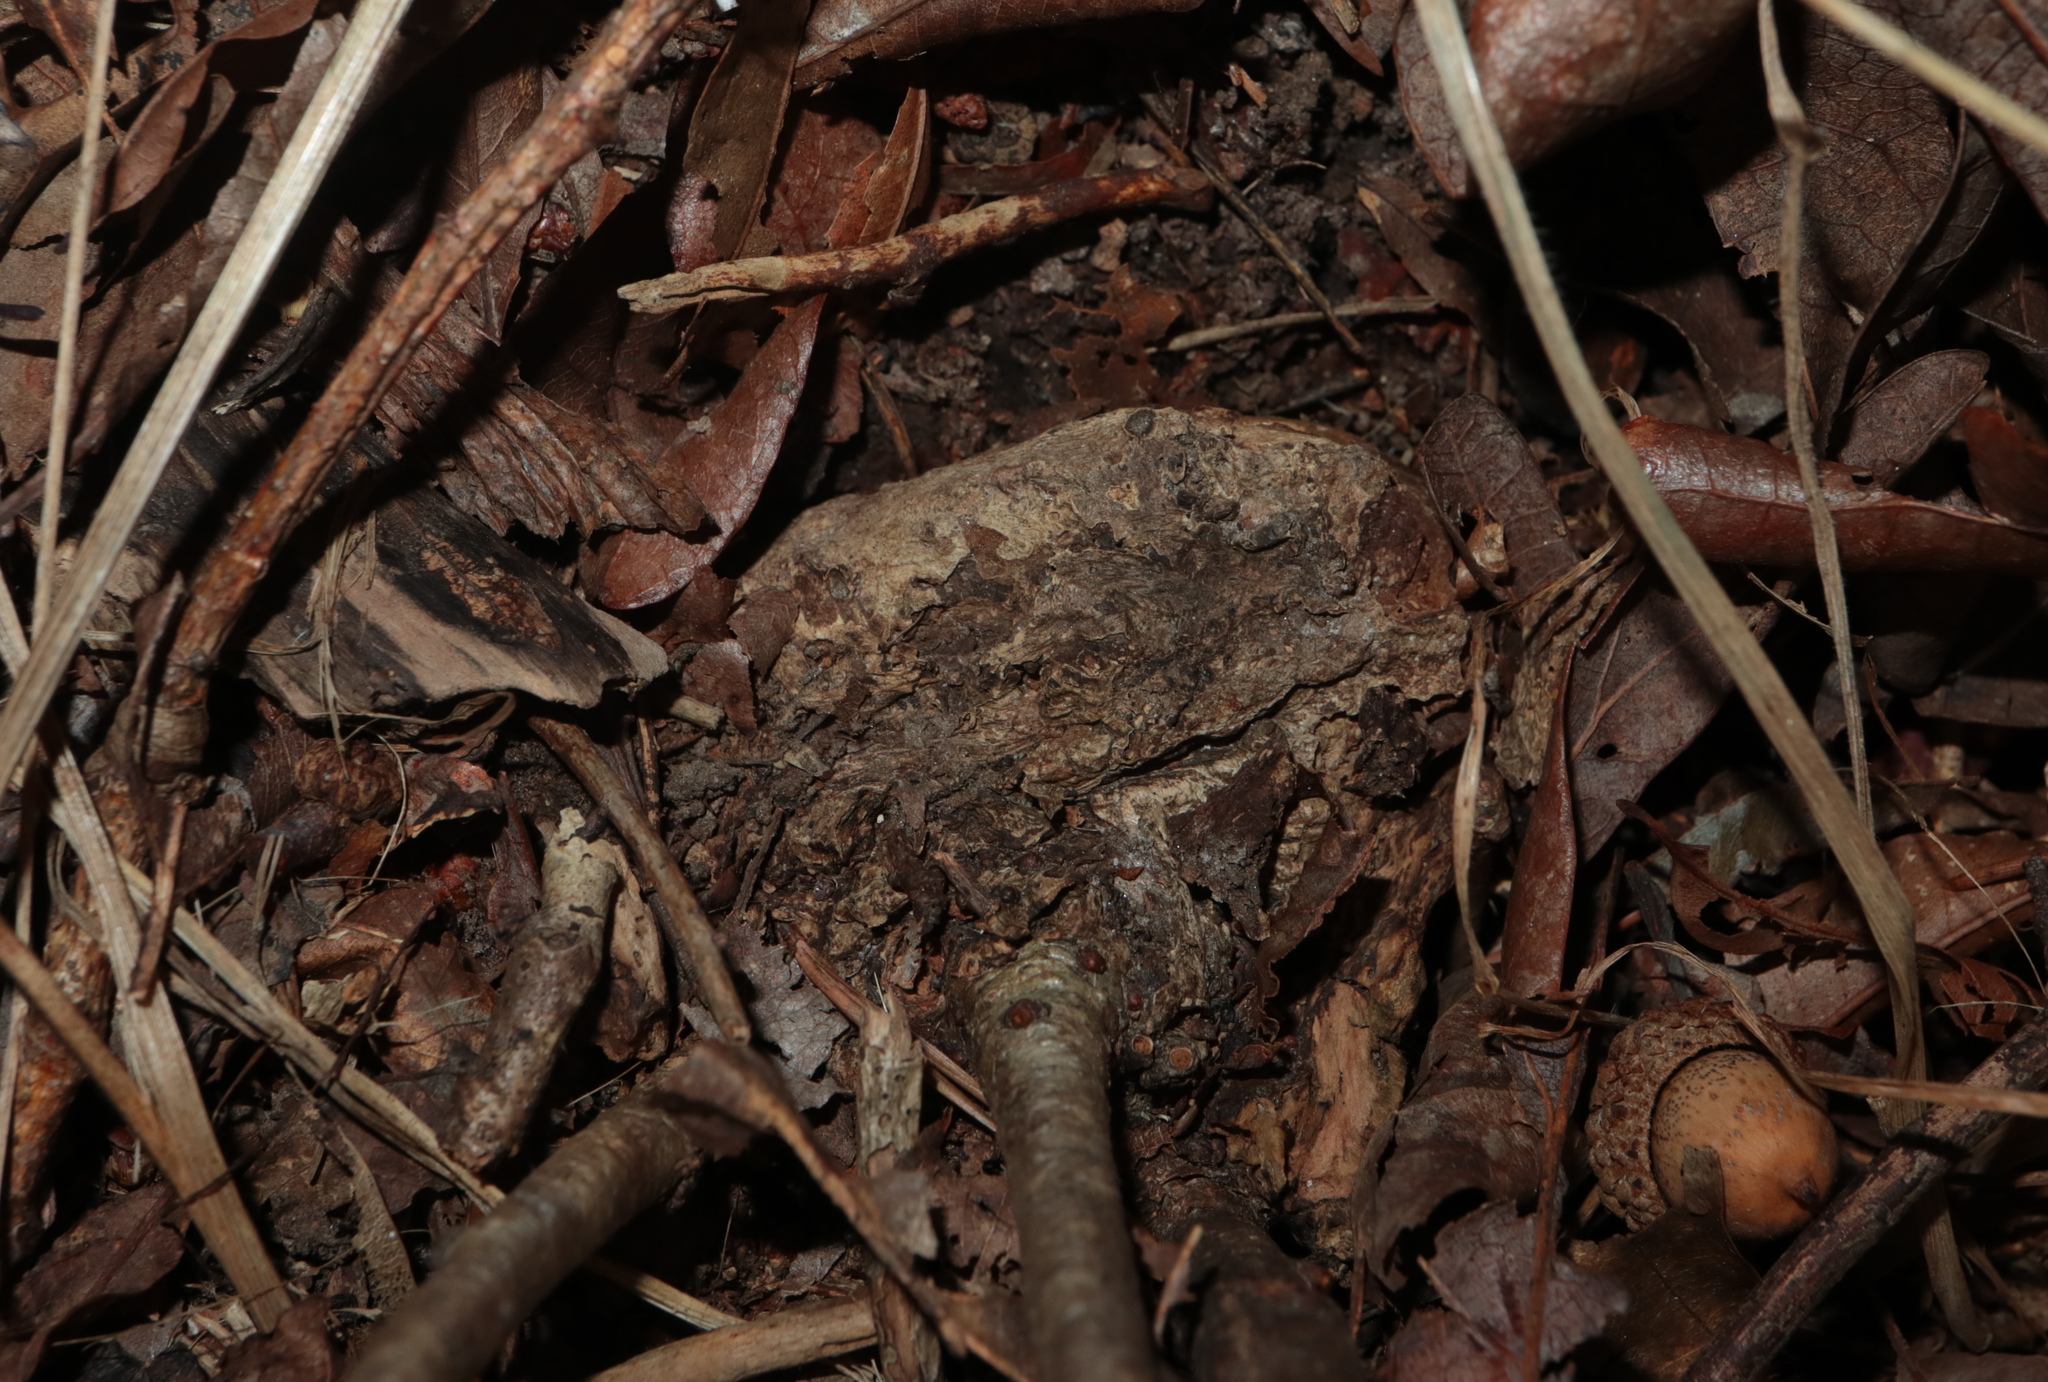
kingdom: Animalia
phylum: Arthropoda
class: Insecta
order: Hymenoptera
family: Cynipidae
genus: Holocynips
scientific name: Holocynips
